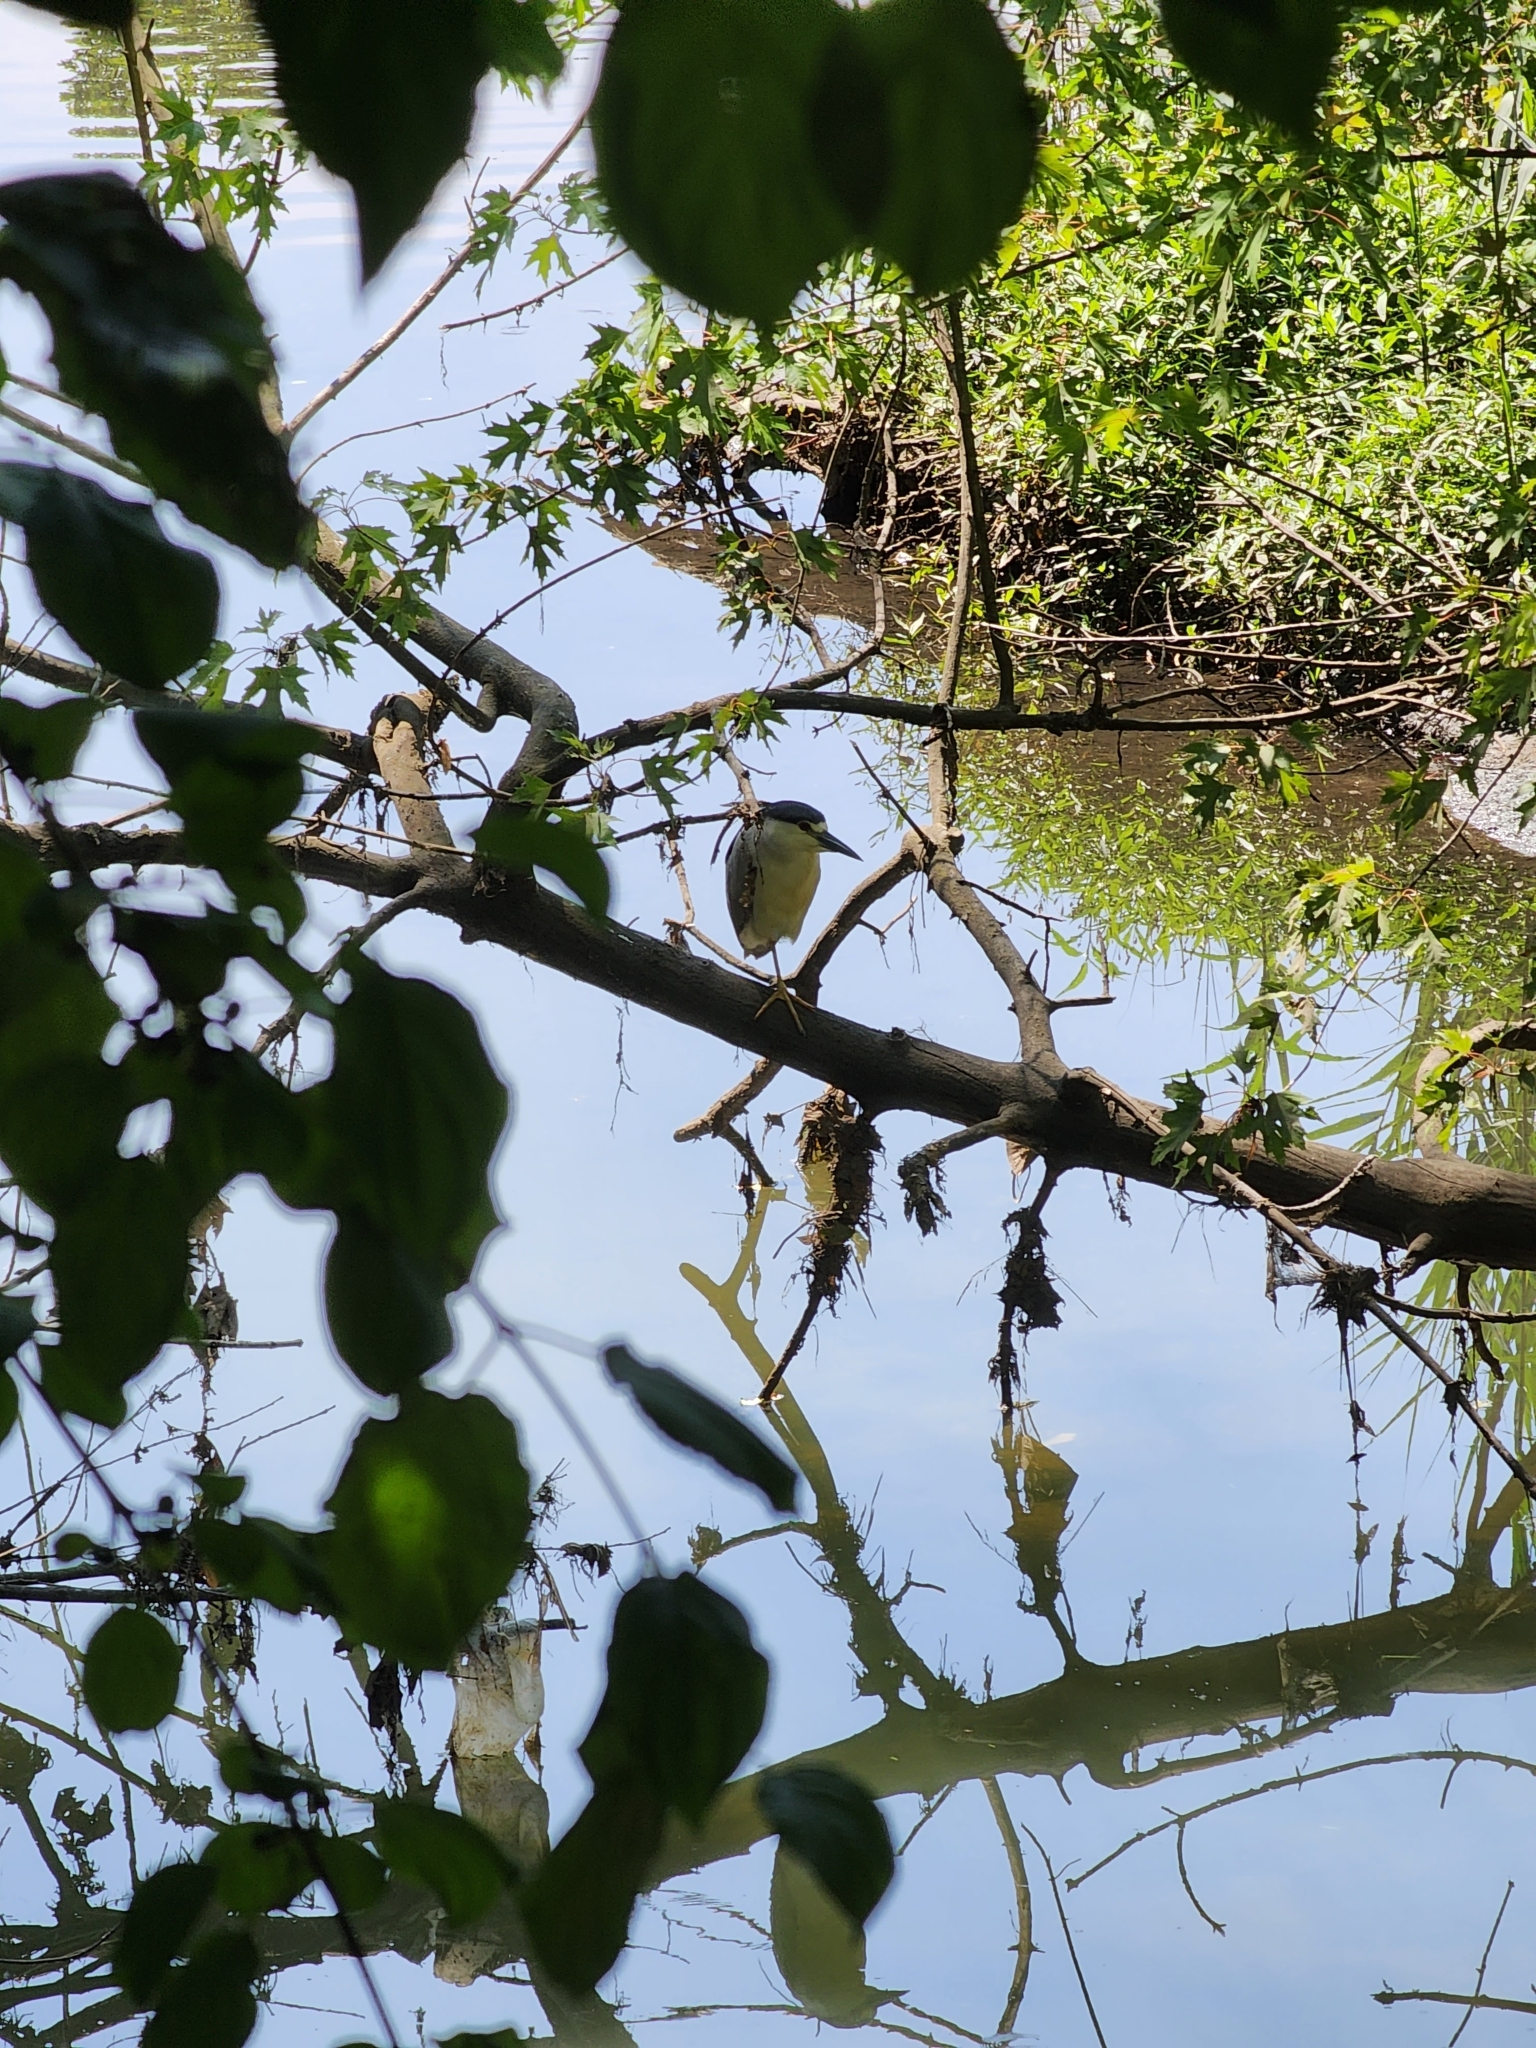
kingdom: Animalia
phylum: Chordata
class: Aves
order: Pelecaniformes
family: Ardeidae
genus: Nycticorax
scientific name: Nycticorax nycticorax
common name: Black-crowned night heron
